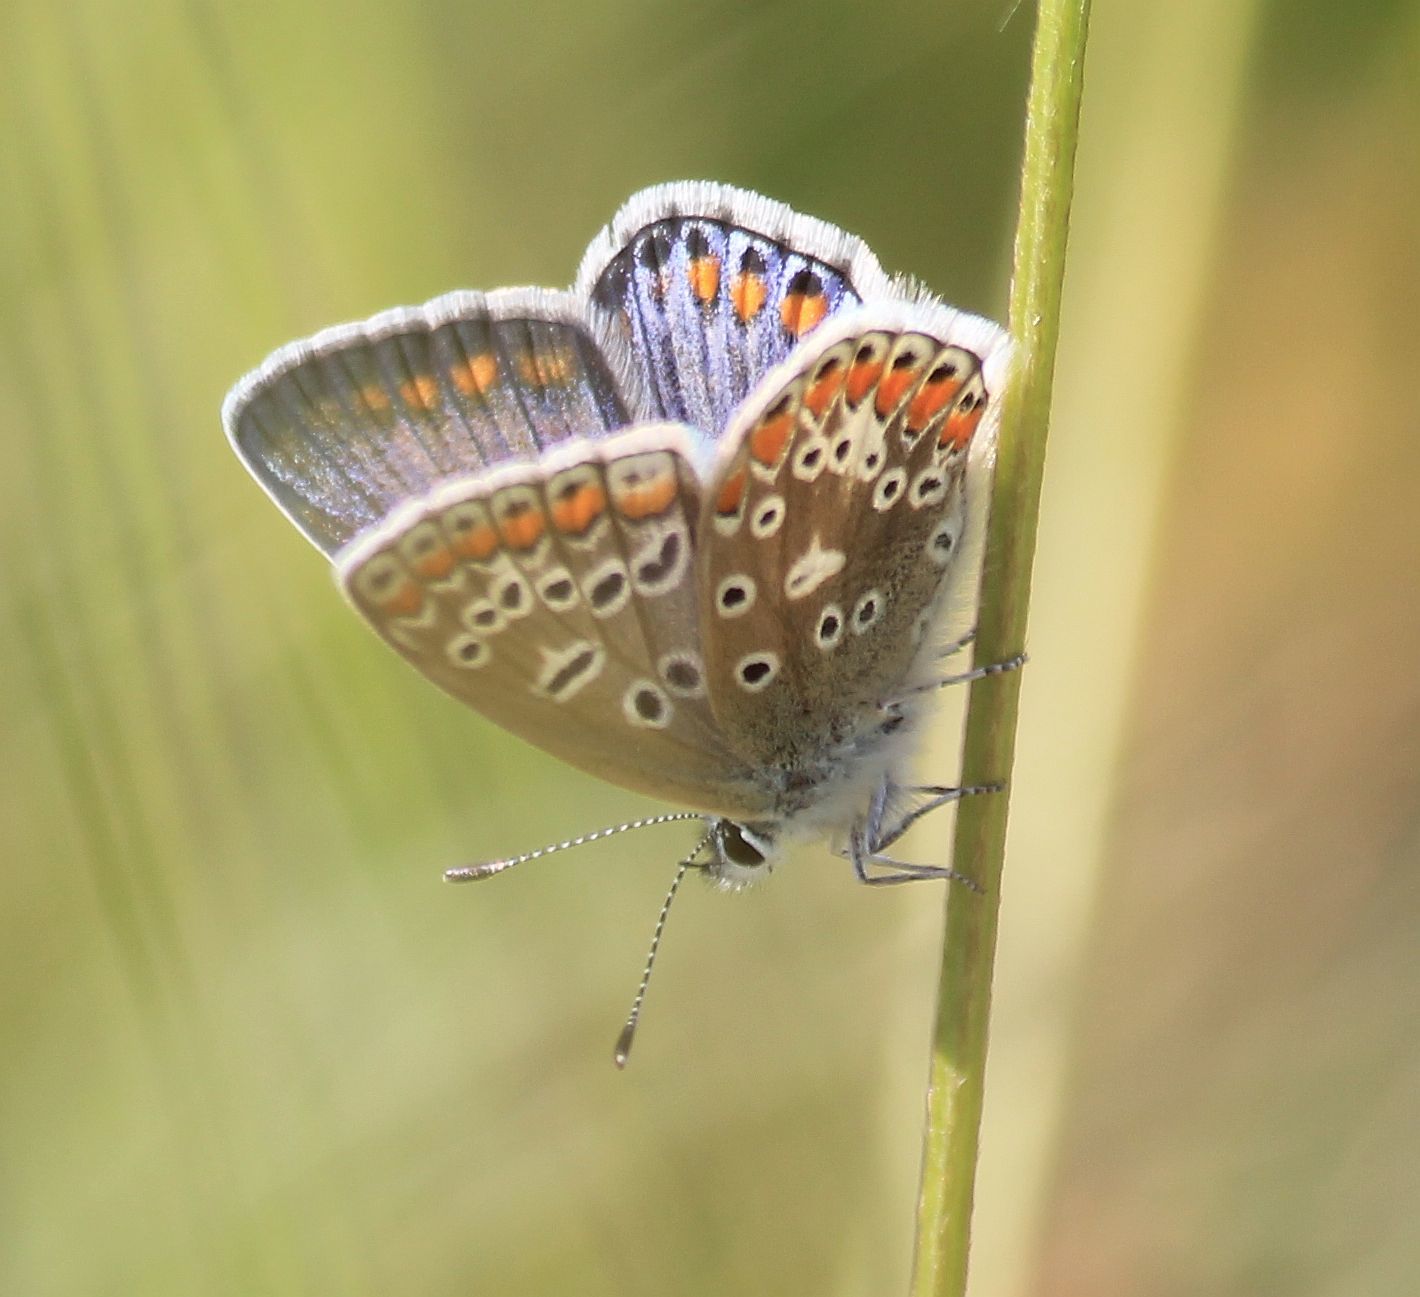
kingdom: Animalia
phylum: Arthropoda
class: Insecta
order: Lepidoptera
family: Lycaenidae
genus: Polyommatus
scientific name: Polyommatus icarus
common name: Common blue
